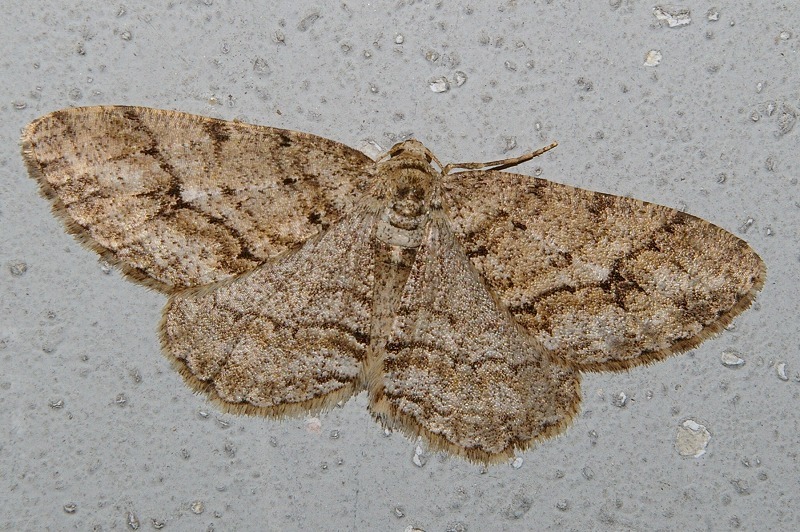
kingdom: Animalia
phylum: Arthropoda
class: Insecta
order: Lepidoptera
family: Geometridae
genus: Ectropis
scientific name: Ectropis obliqua
